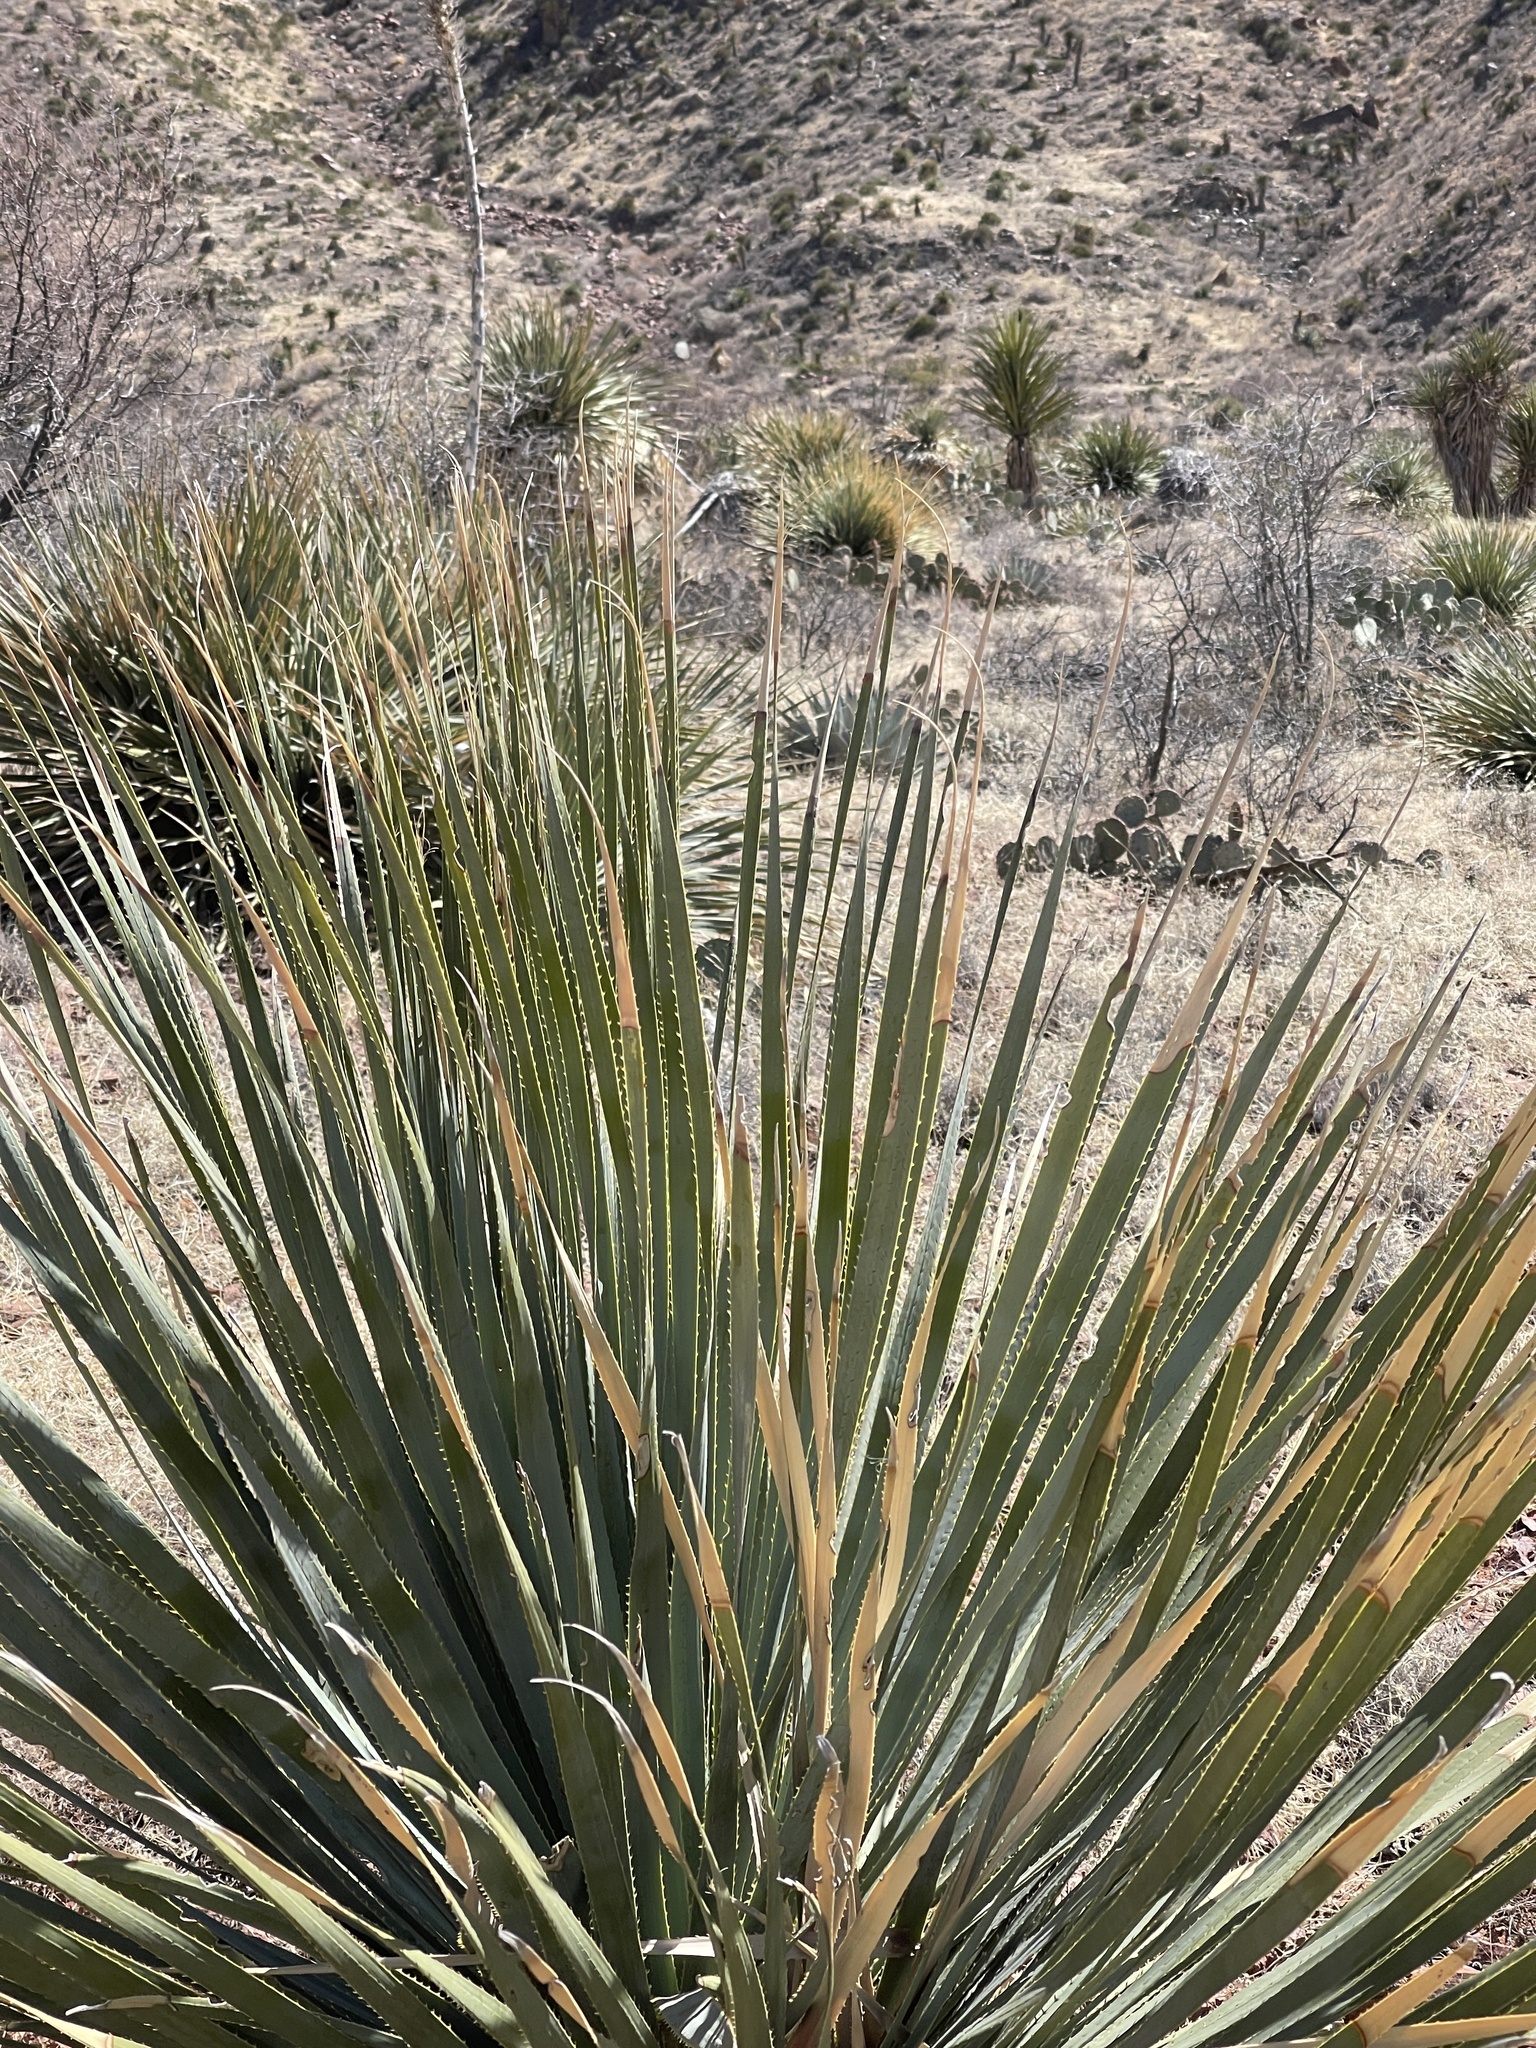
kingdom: Plantae
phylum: Tracheophyta
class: Liliopsida
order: Asparagales
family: Asparagaceae
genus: Dasylirion
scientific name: Dasylirion wheeleri
